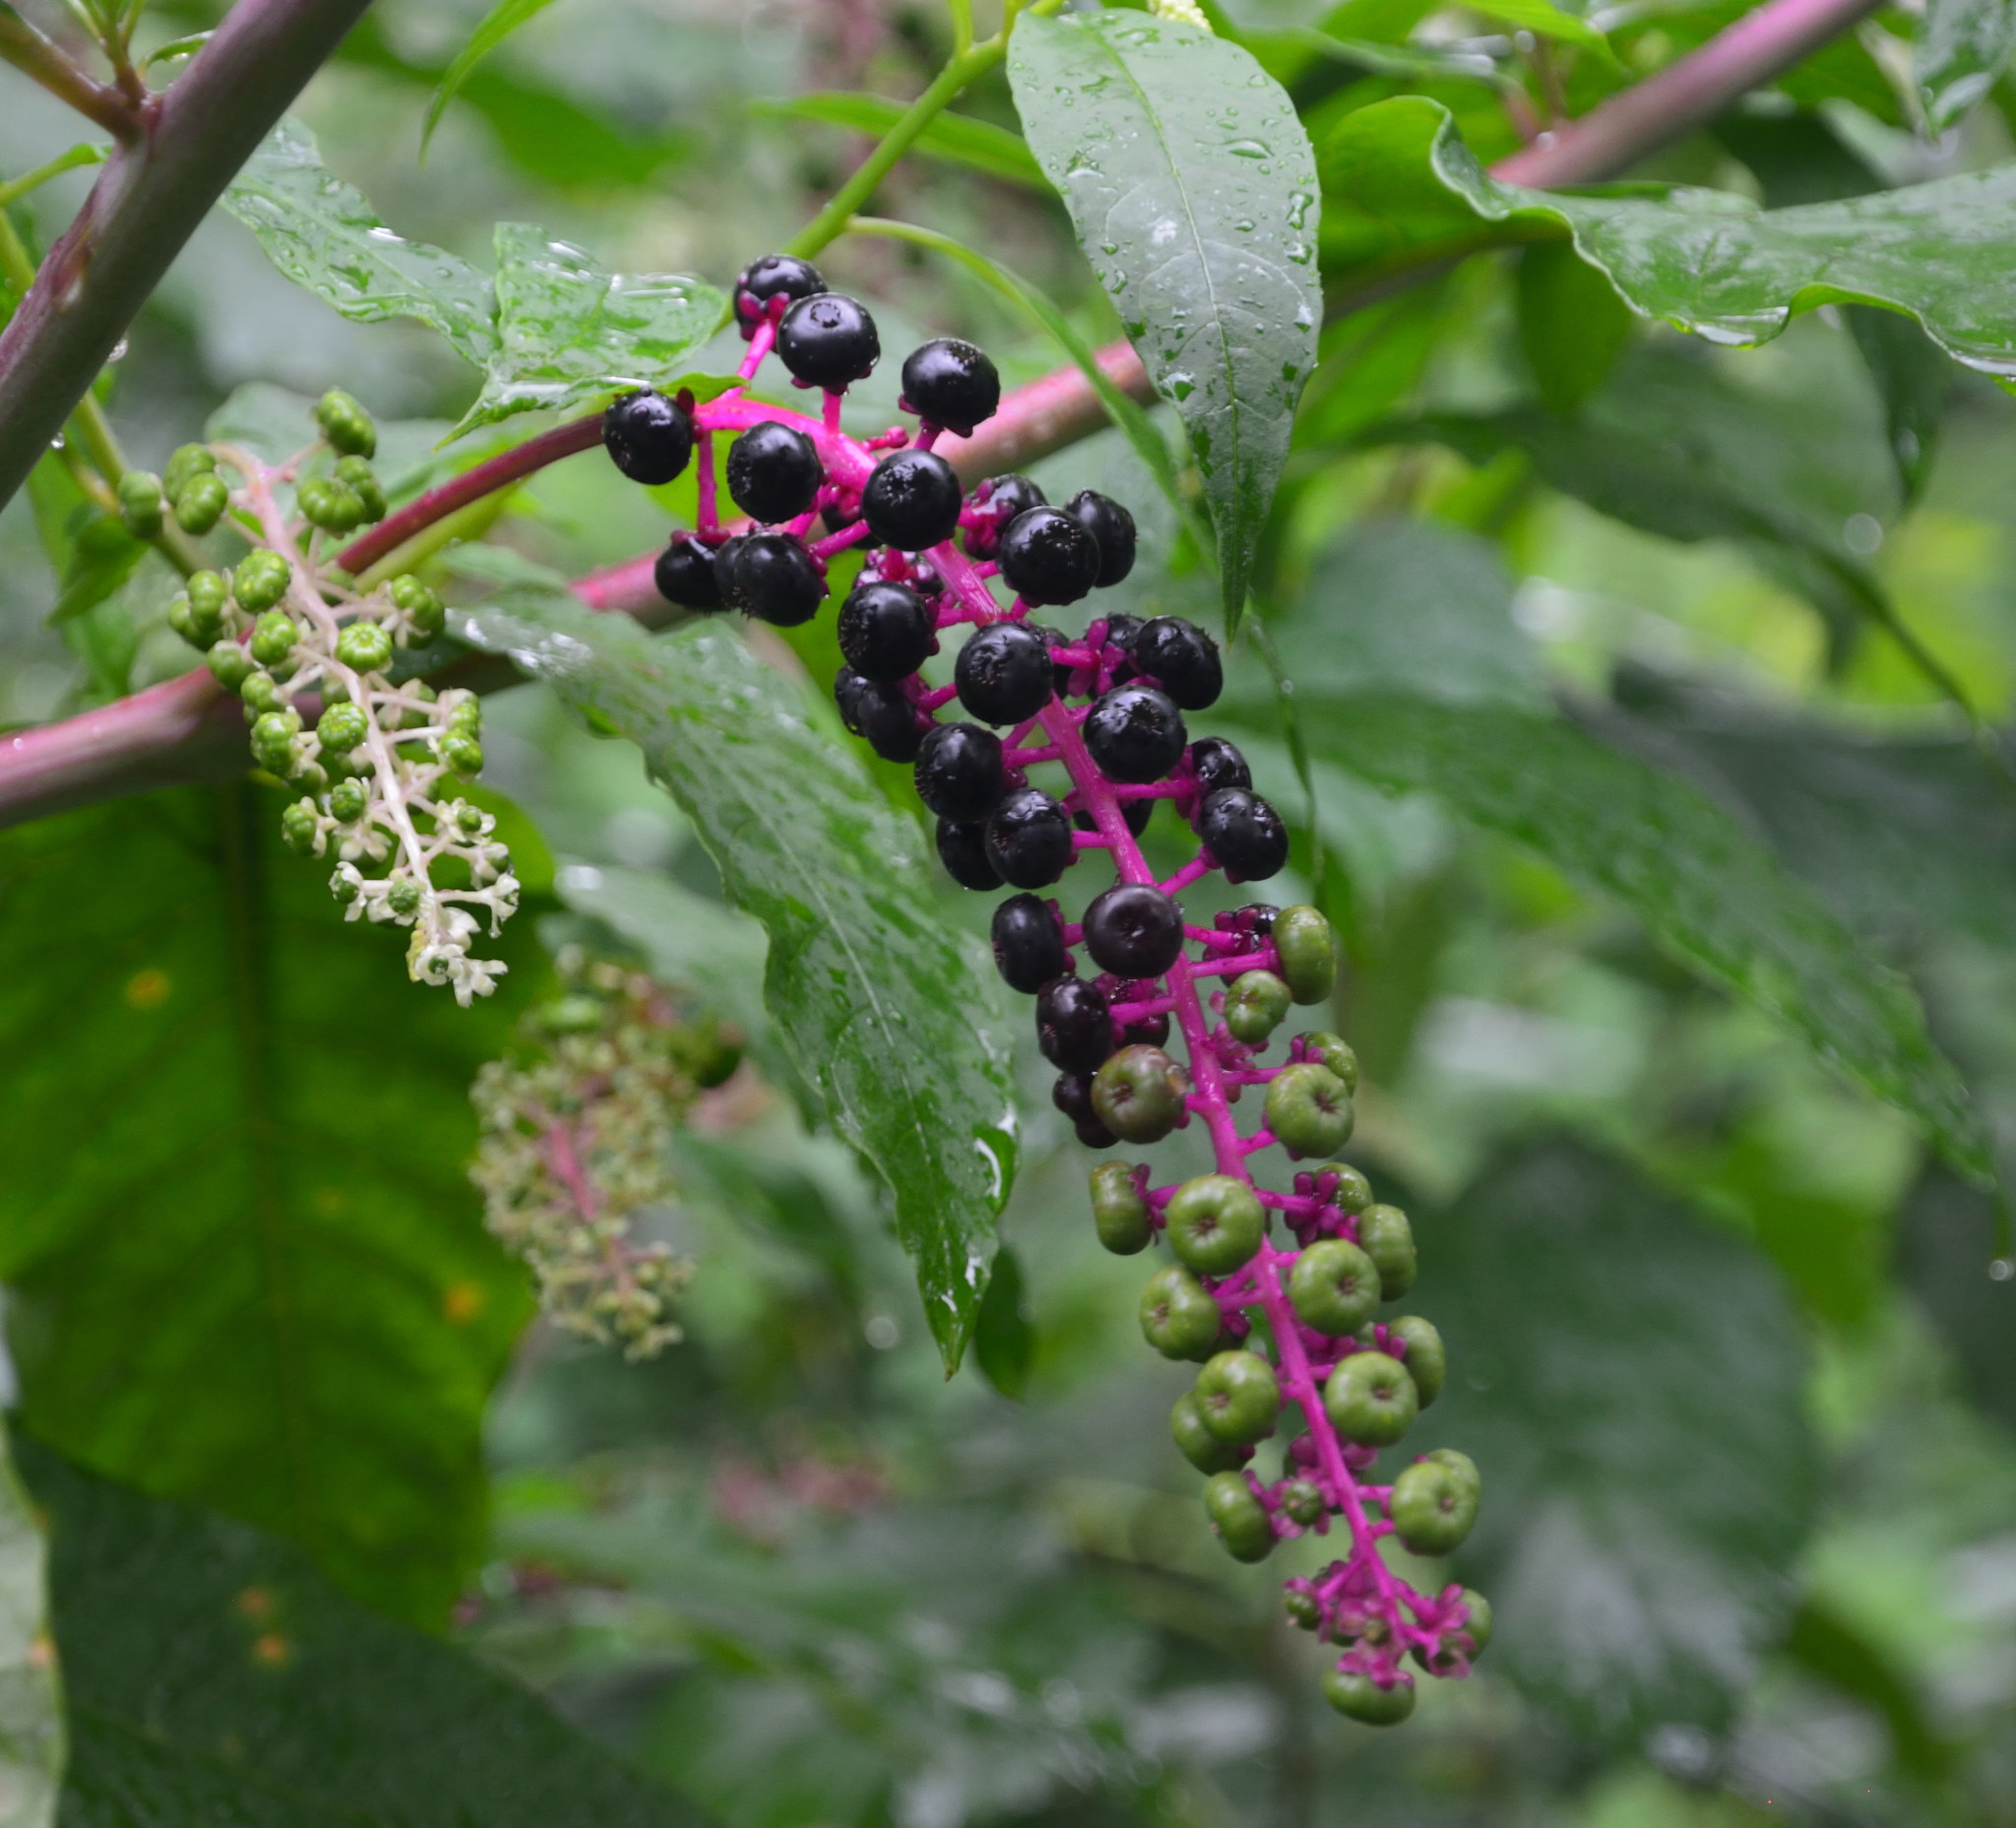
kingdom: Plantae
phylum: Tracheophyta
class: Magnoliopsida
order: Caryophyllales
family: Phytolaccaceae
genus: Phytolacca
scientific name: Phytolacca americana
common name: American pokeweed
